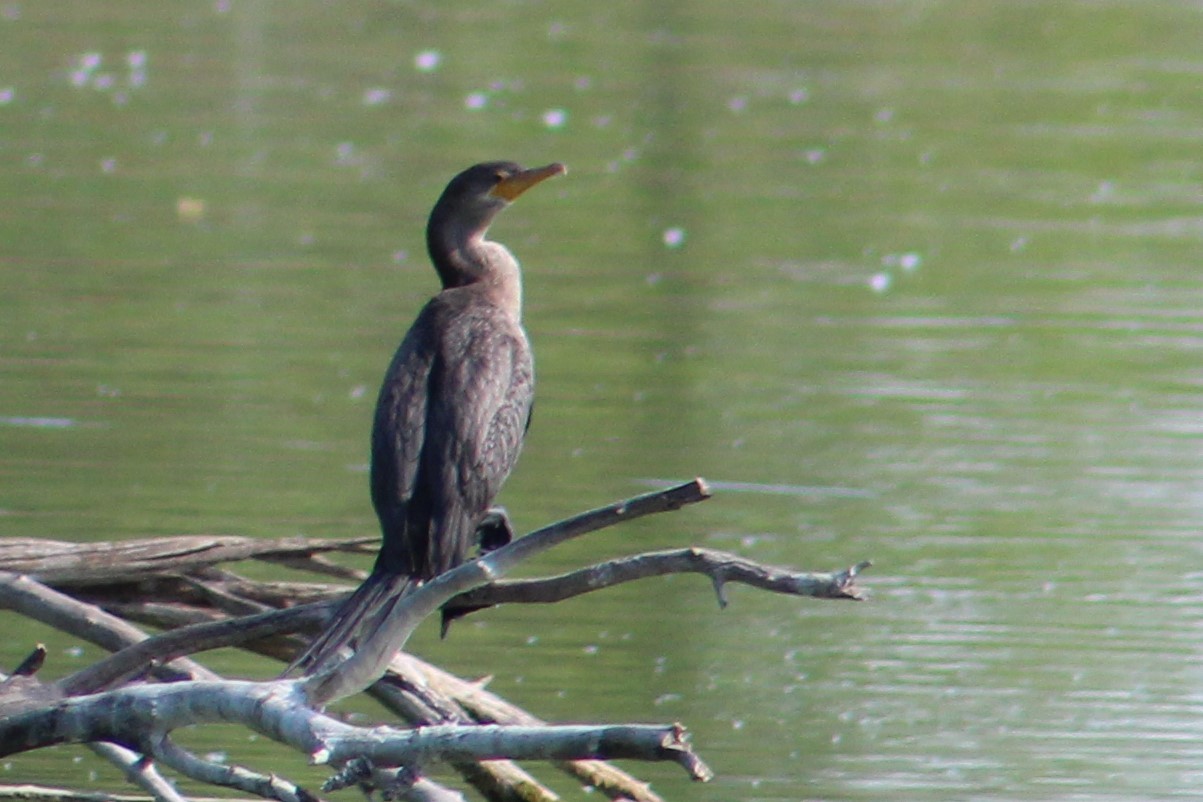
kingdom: Animalia
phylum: Chordata
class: Aves
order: Suliformes
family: Phalacrocoracidae
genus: Phalacrocorax
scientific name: Phalacrocorax brasilianus
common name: Neotropic cormorant
